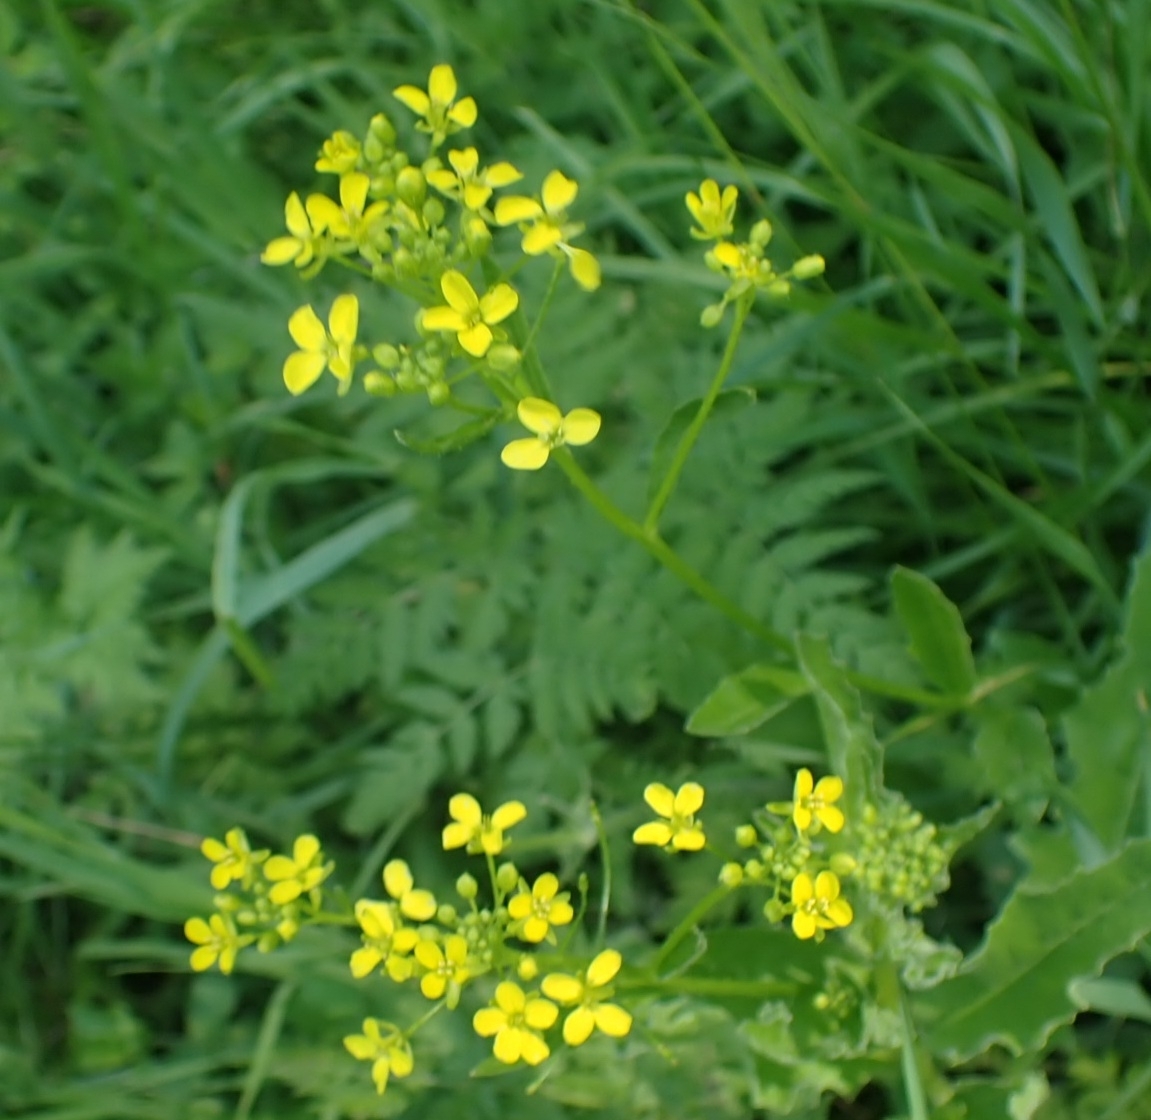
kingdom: Plantae
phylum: Tracheophyta
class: Magnoliopsida
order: Brassicales
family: Brassicaceae
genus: Bunias
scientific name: Bunias orientalis
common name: Warty-cabbage
